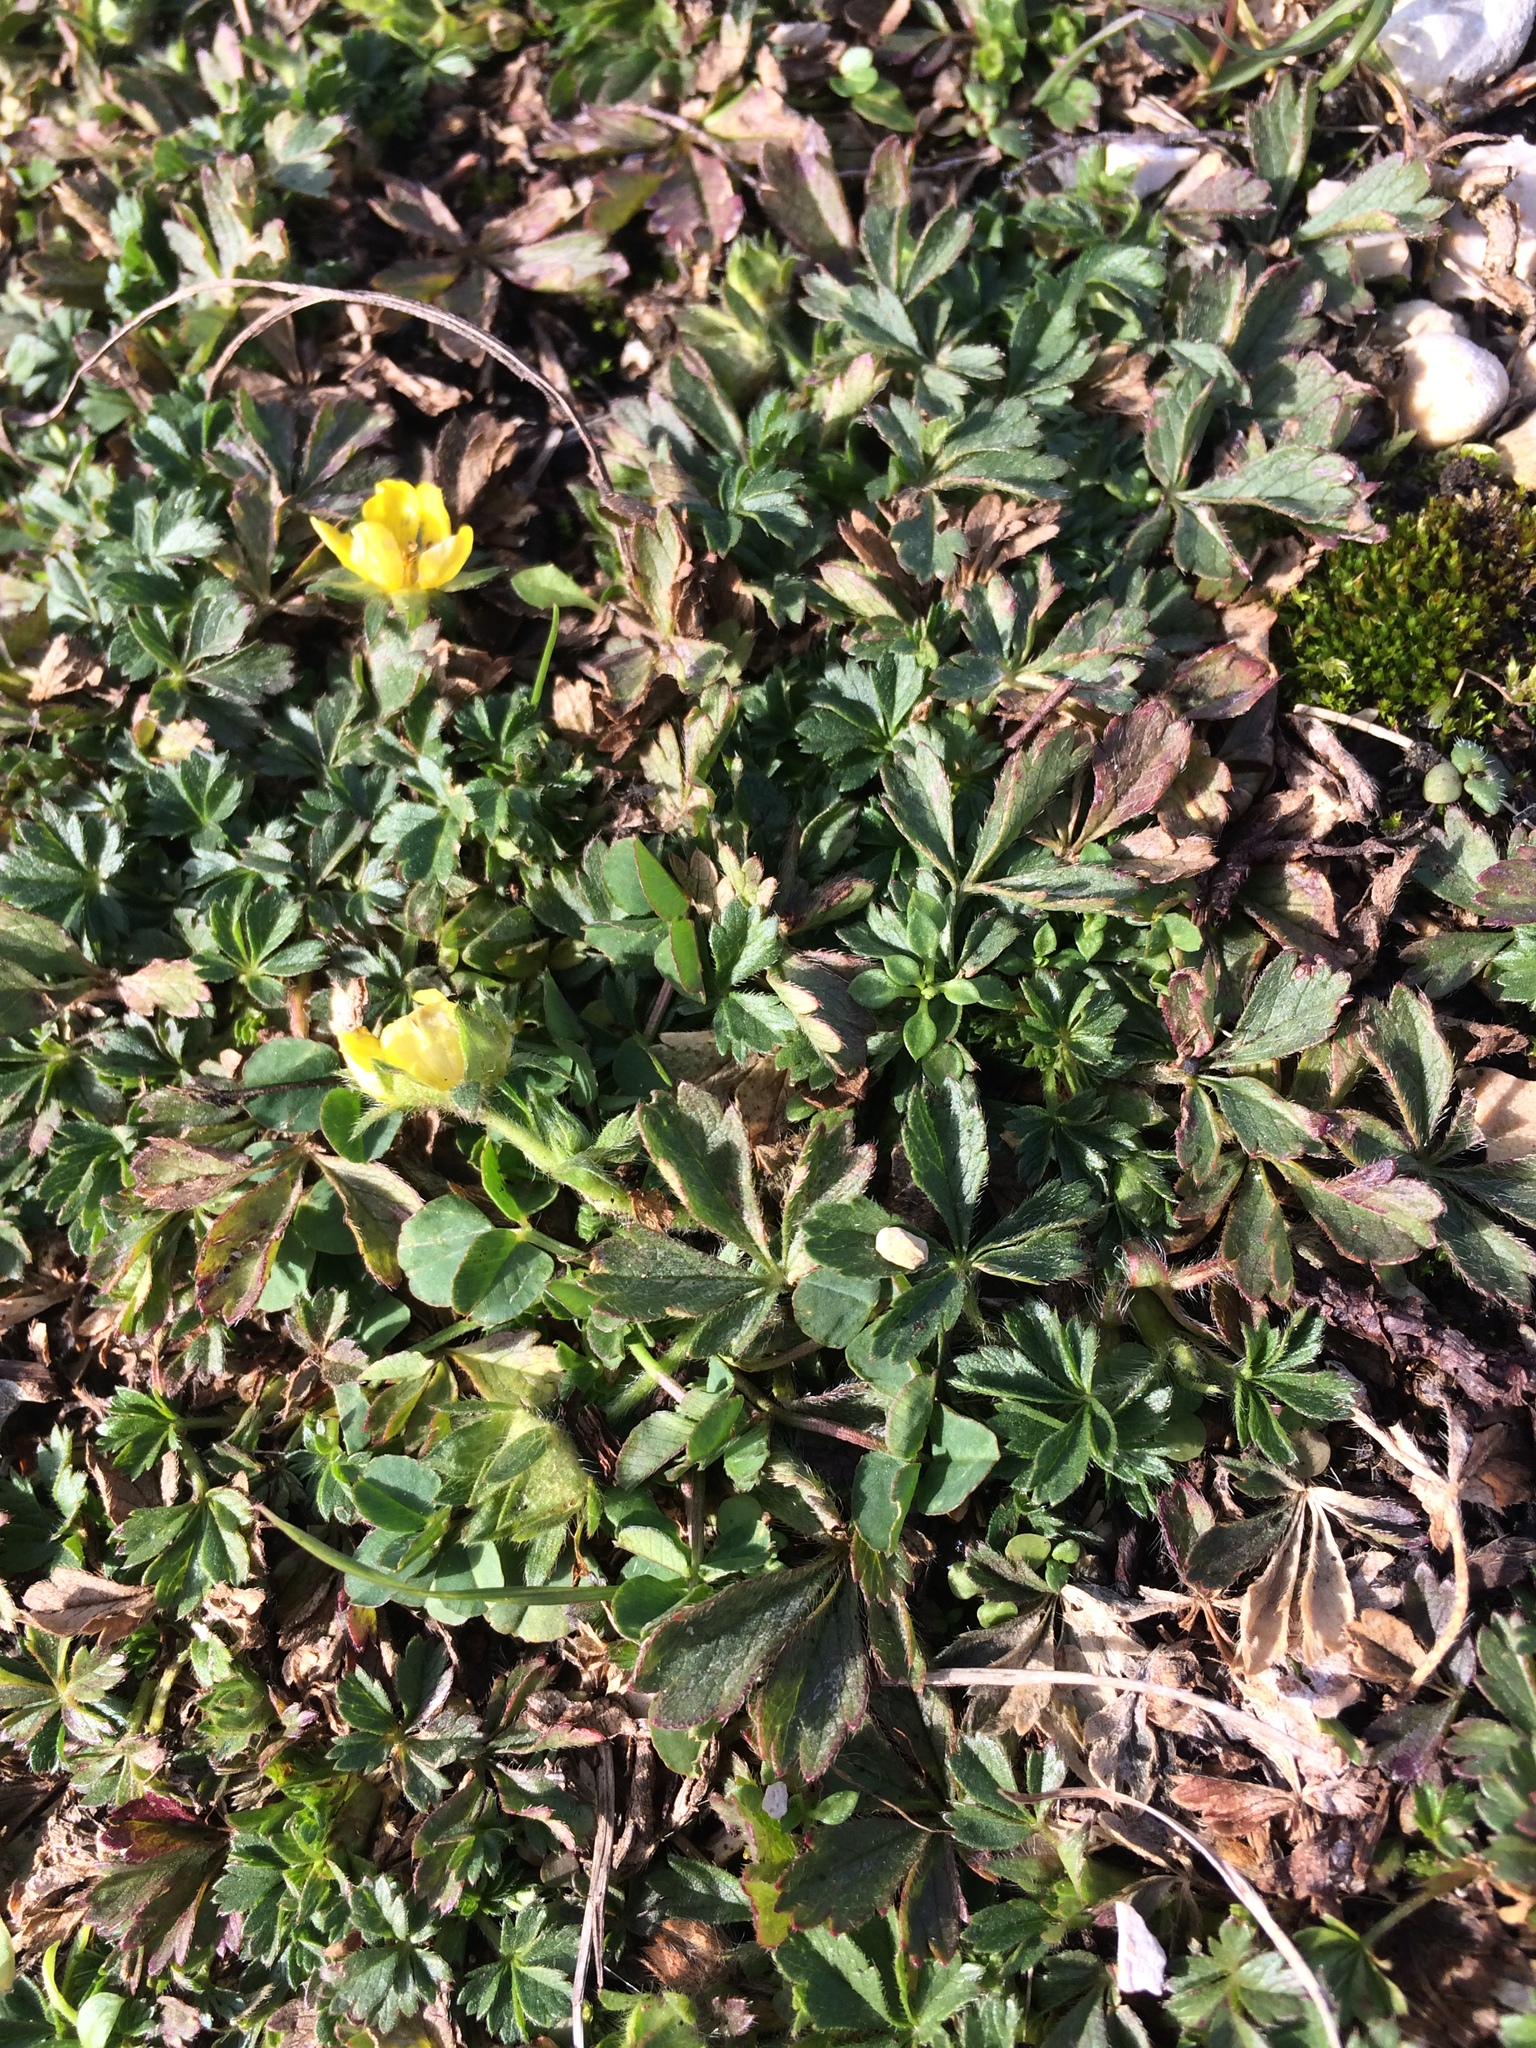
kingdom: Plantae
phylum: Tracheophyta
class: Magnoliopsida
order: Rosales
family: Rosaceae
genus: Potentilla
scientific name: Potentilla verna
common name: Spring cinquefoil
